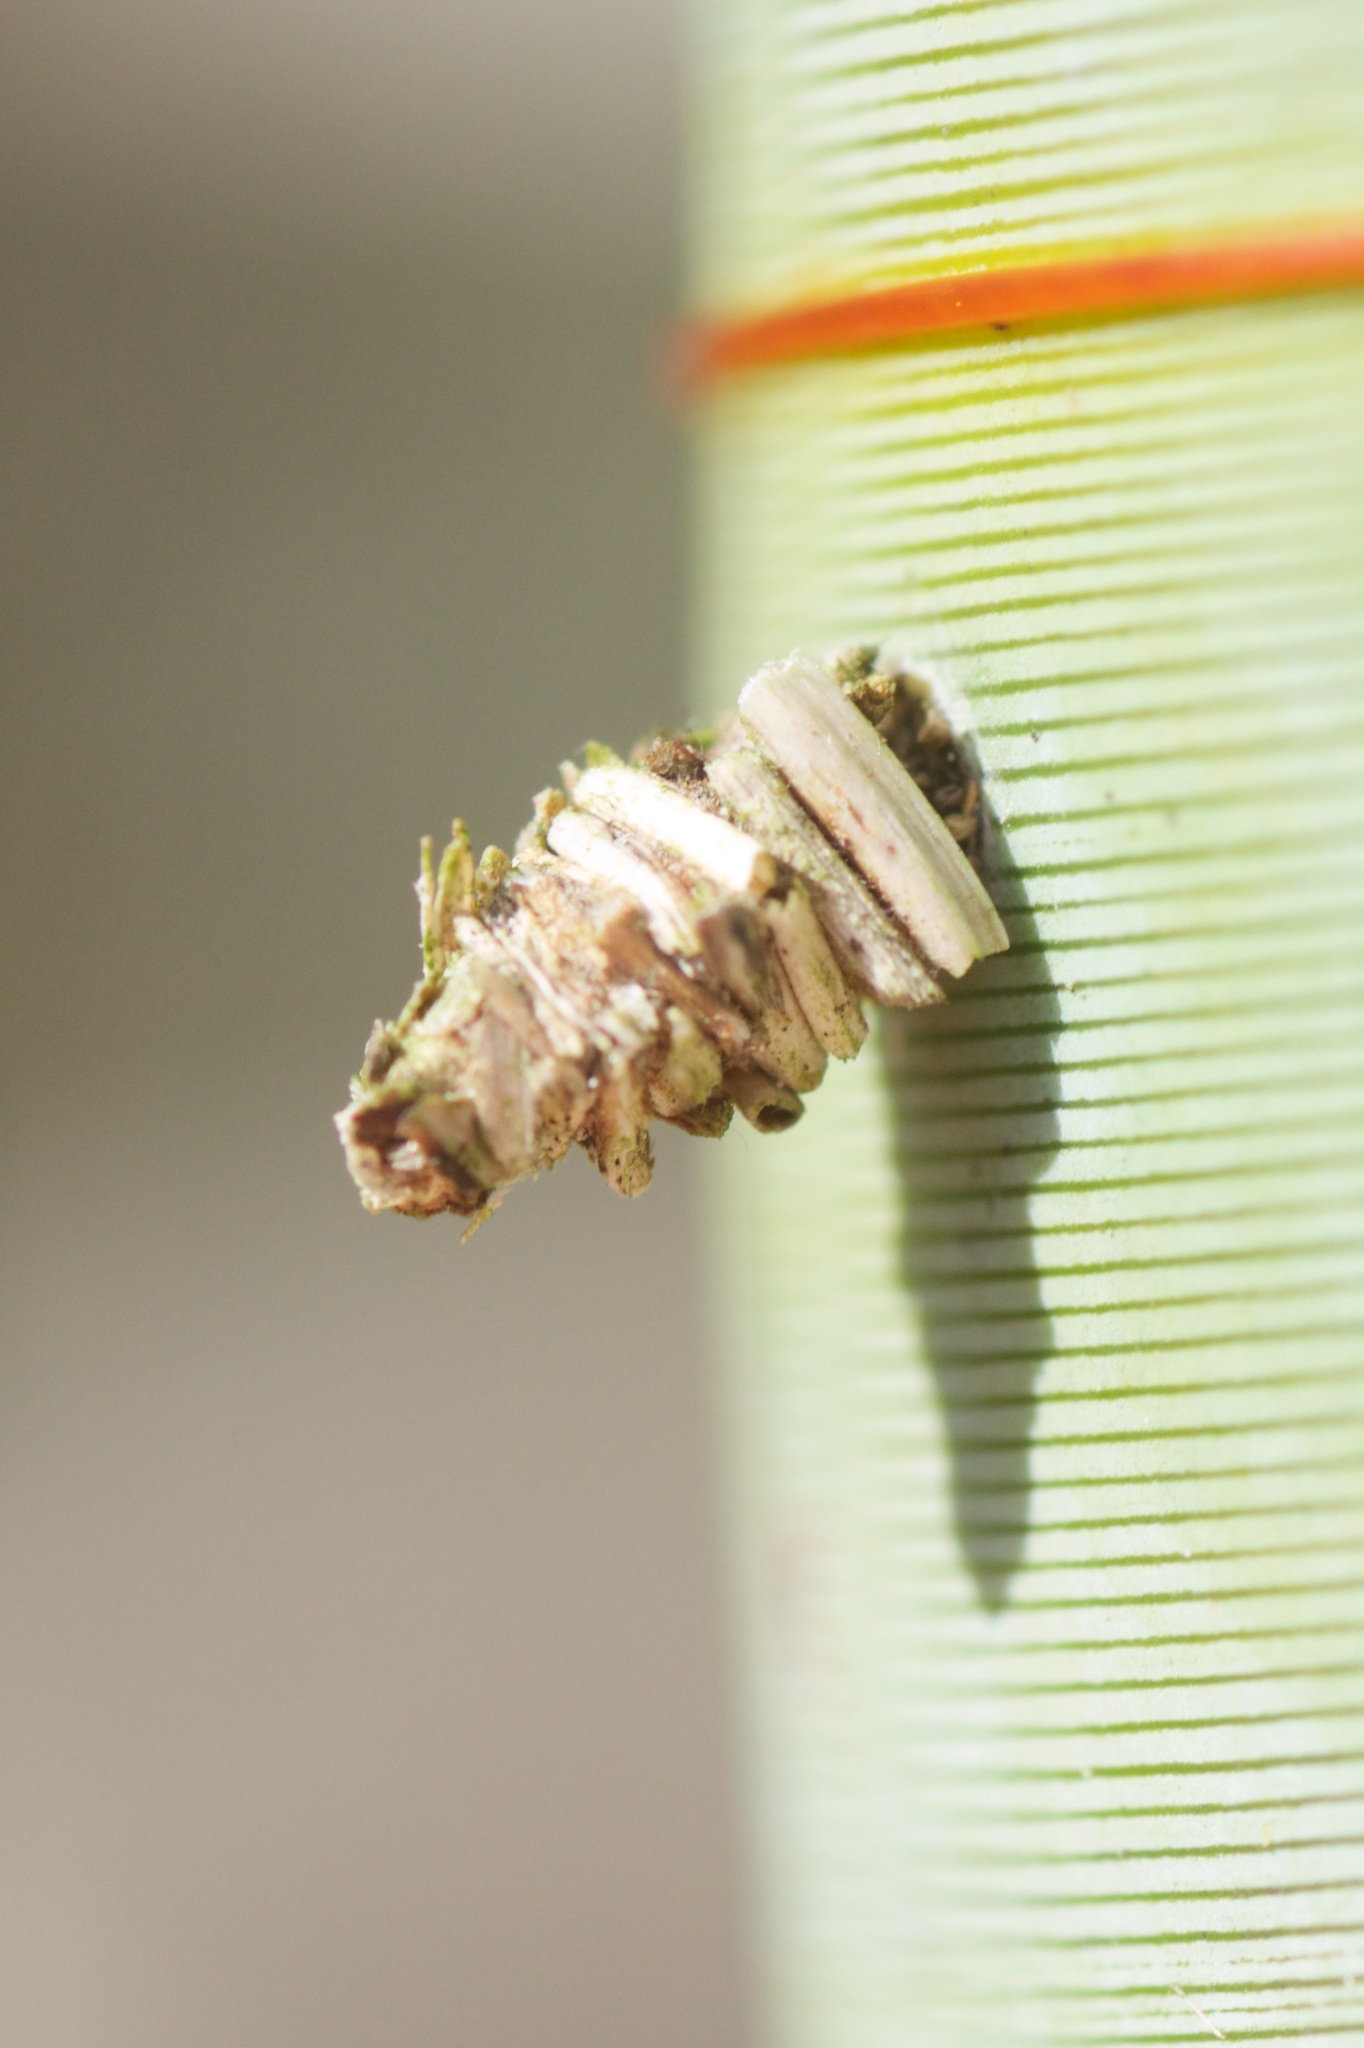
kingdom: Animalia
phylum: Arthropoda
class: Insecta
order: Lepidoptera
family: Psychidae
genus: Lepidoscia
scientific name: Lepidoscia lainodes
